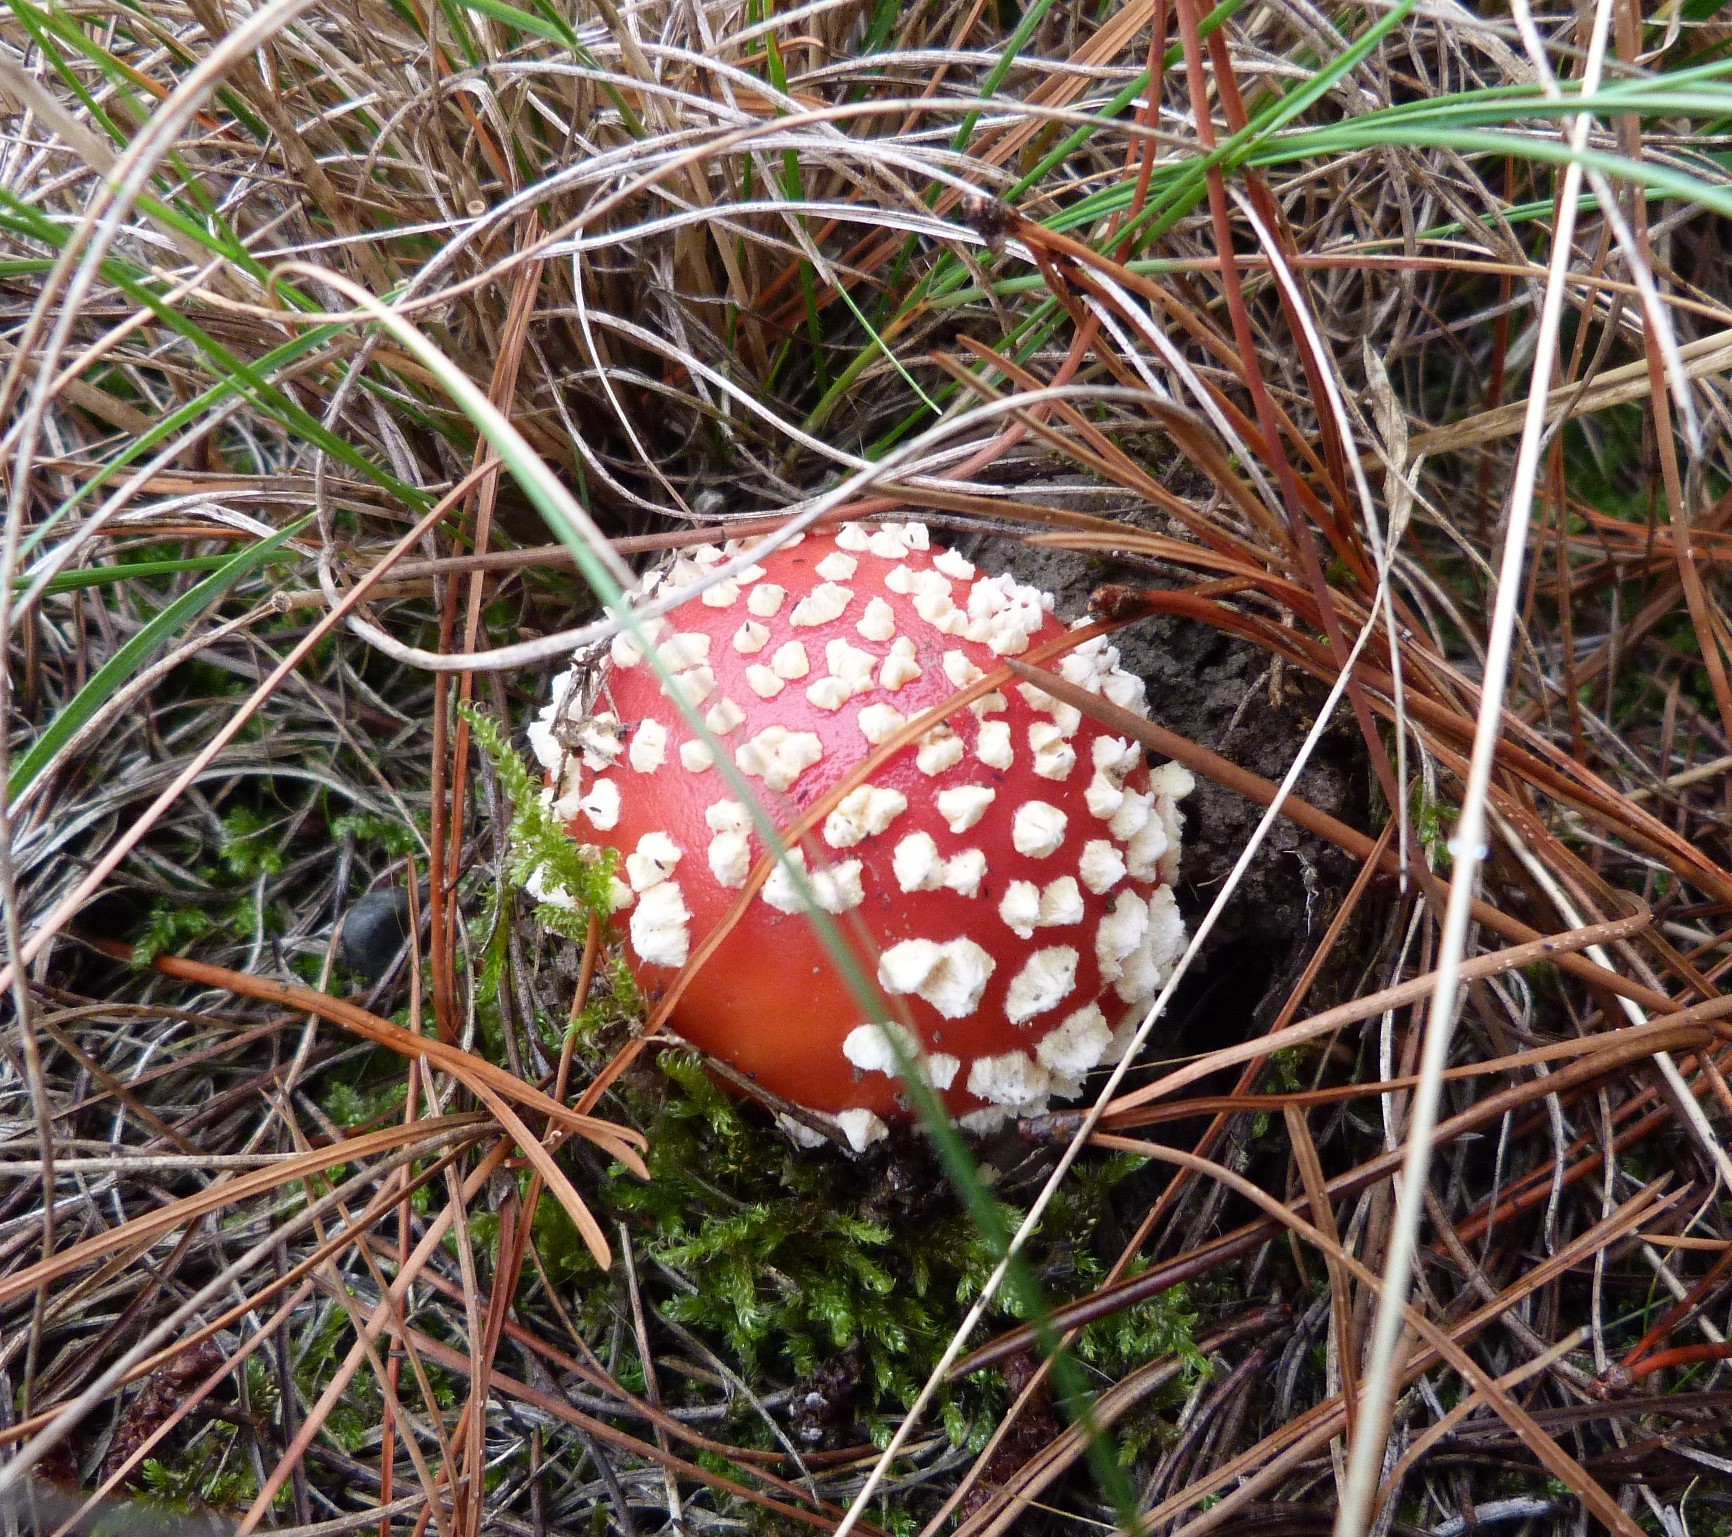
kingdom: Fungi
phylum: Basidiomycota
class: Agaricomycetes
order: Agaricales
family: Amanitaceae
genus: Amanita
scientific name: Amanita muscaria
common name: Fly agaric
